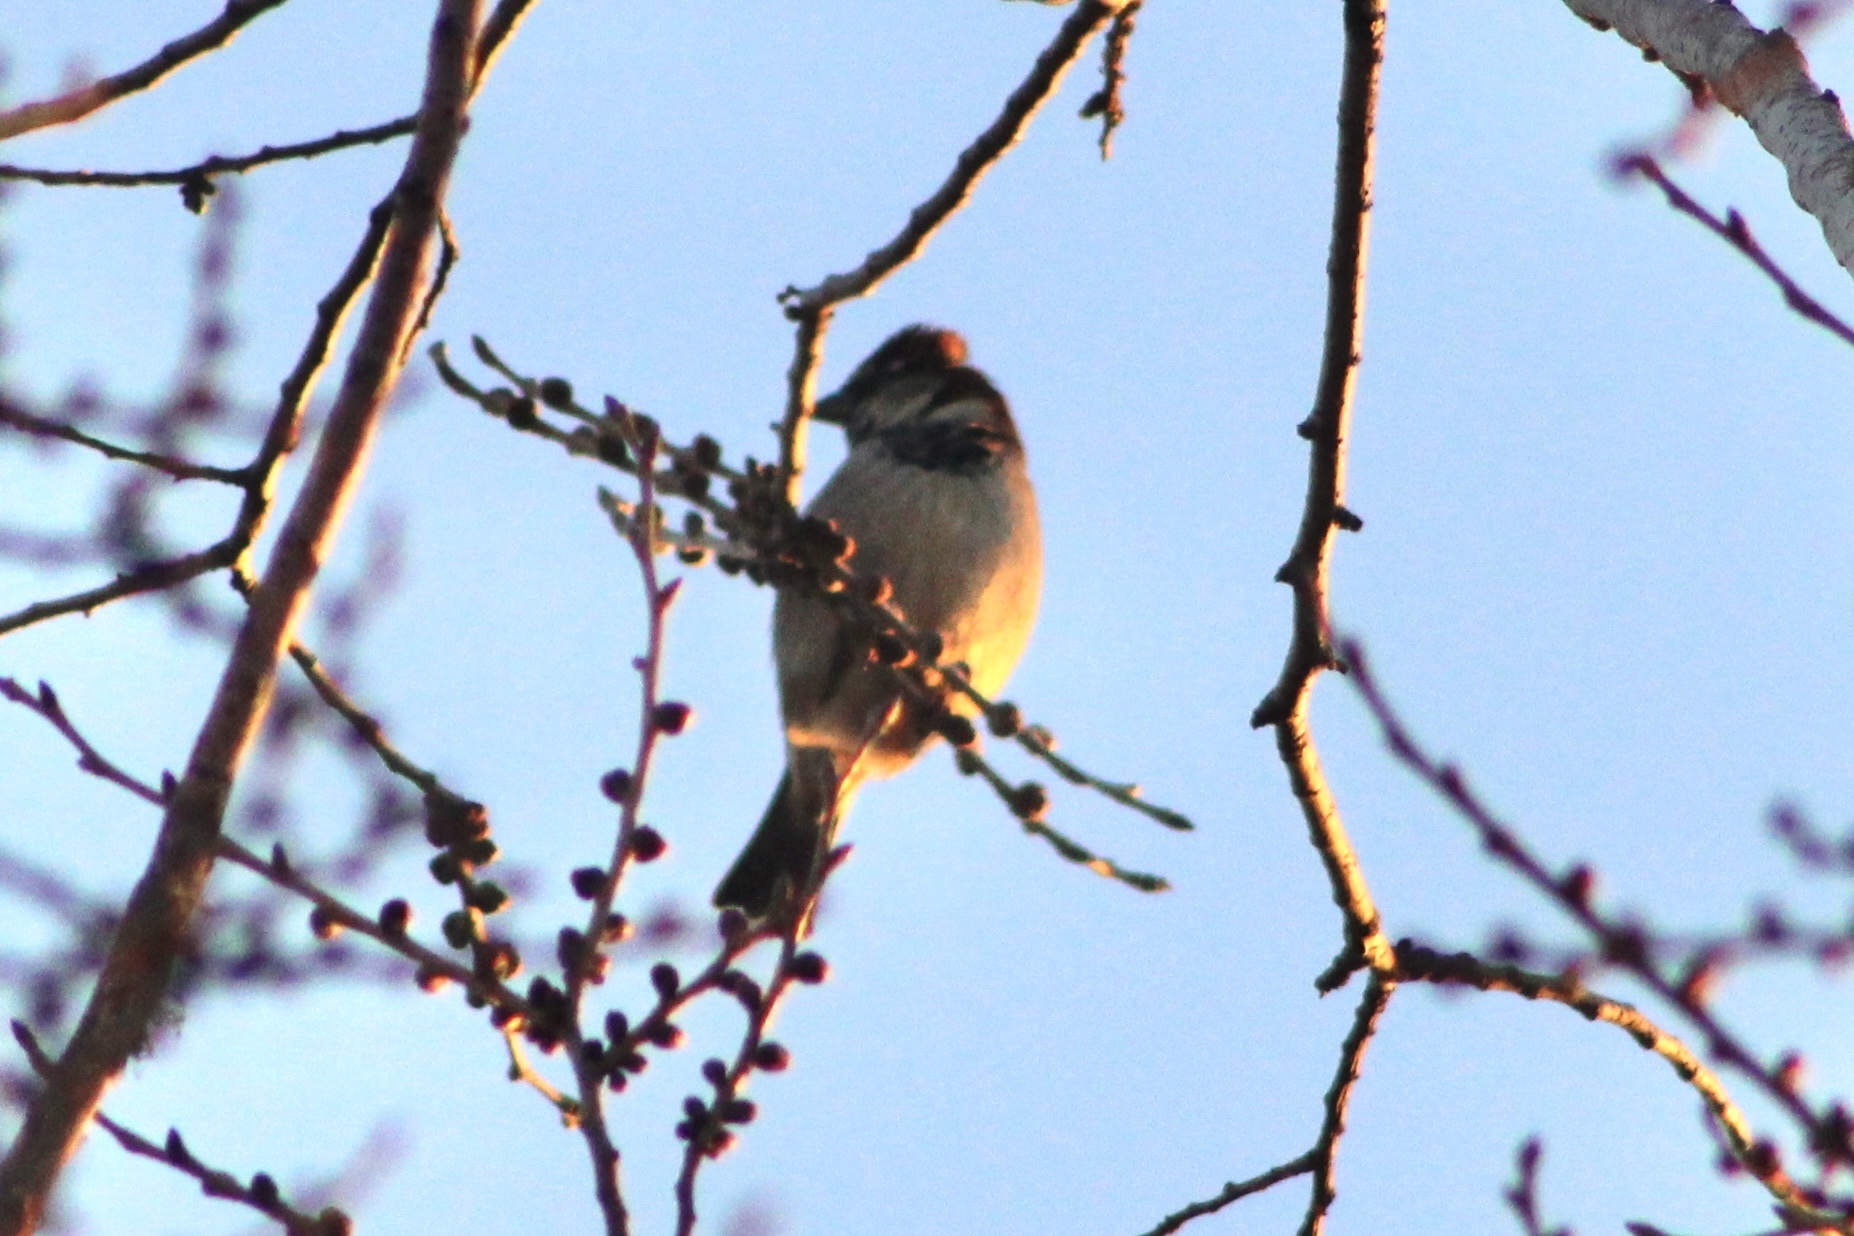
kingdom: Animalia
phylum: Chordata
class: Aves
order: Passeriformes
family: Passeridae
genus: Passer
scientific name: Passer domesticus
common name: House sparrow
